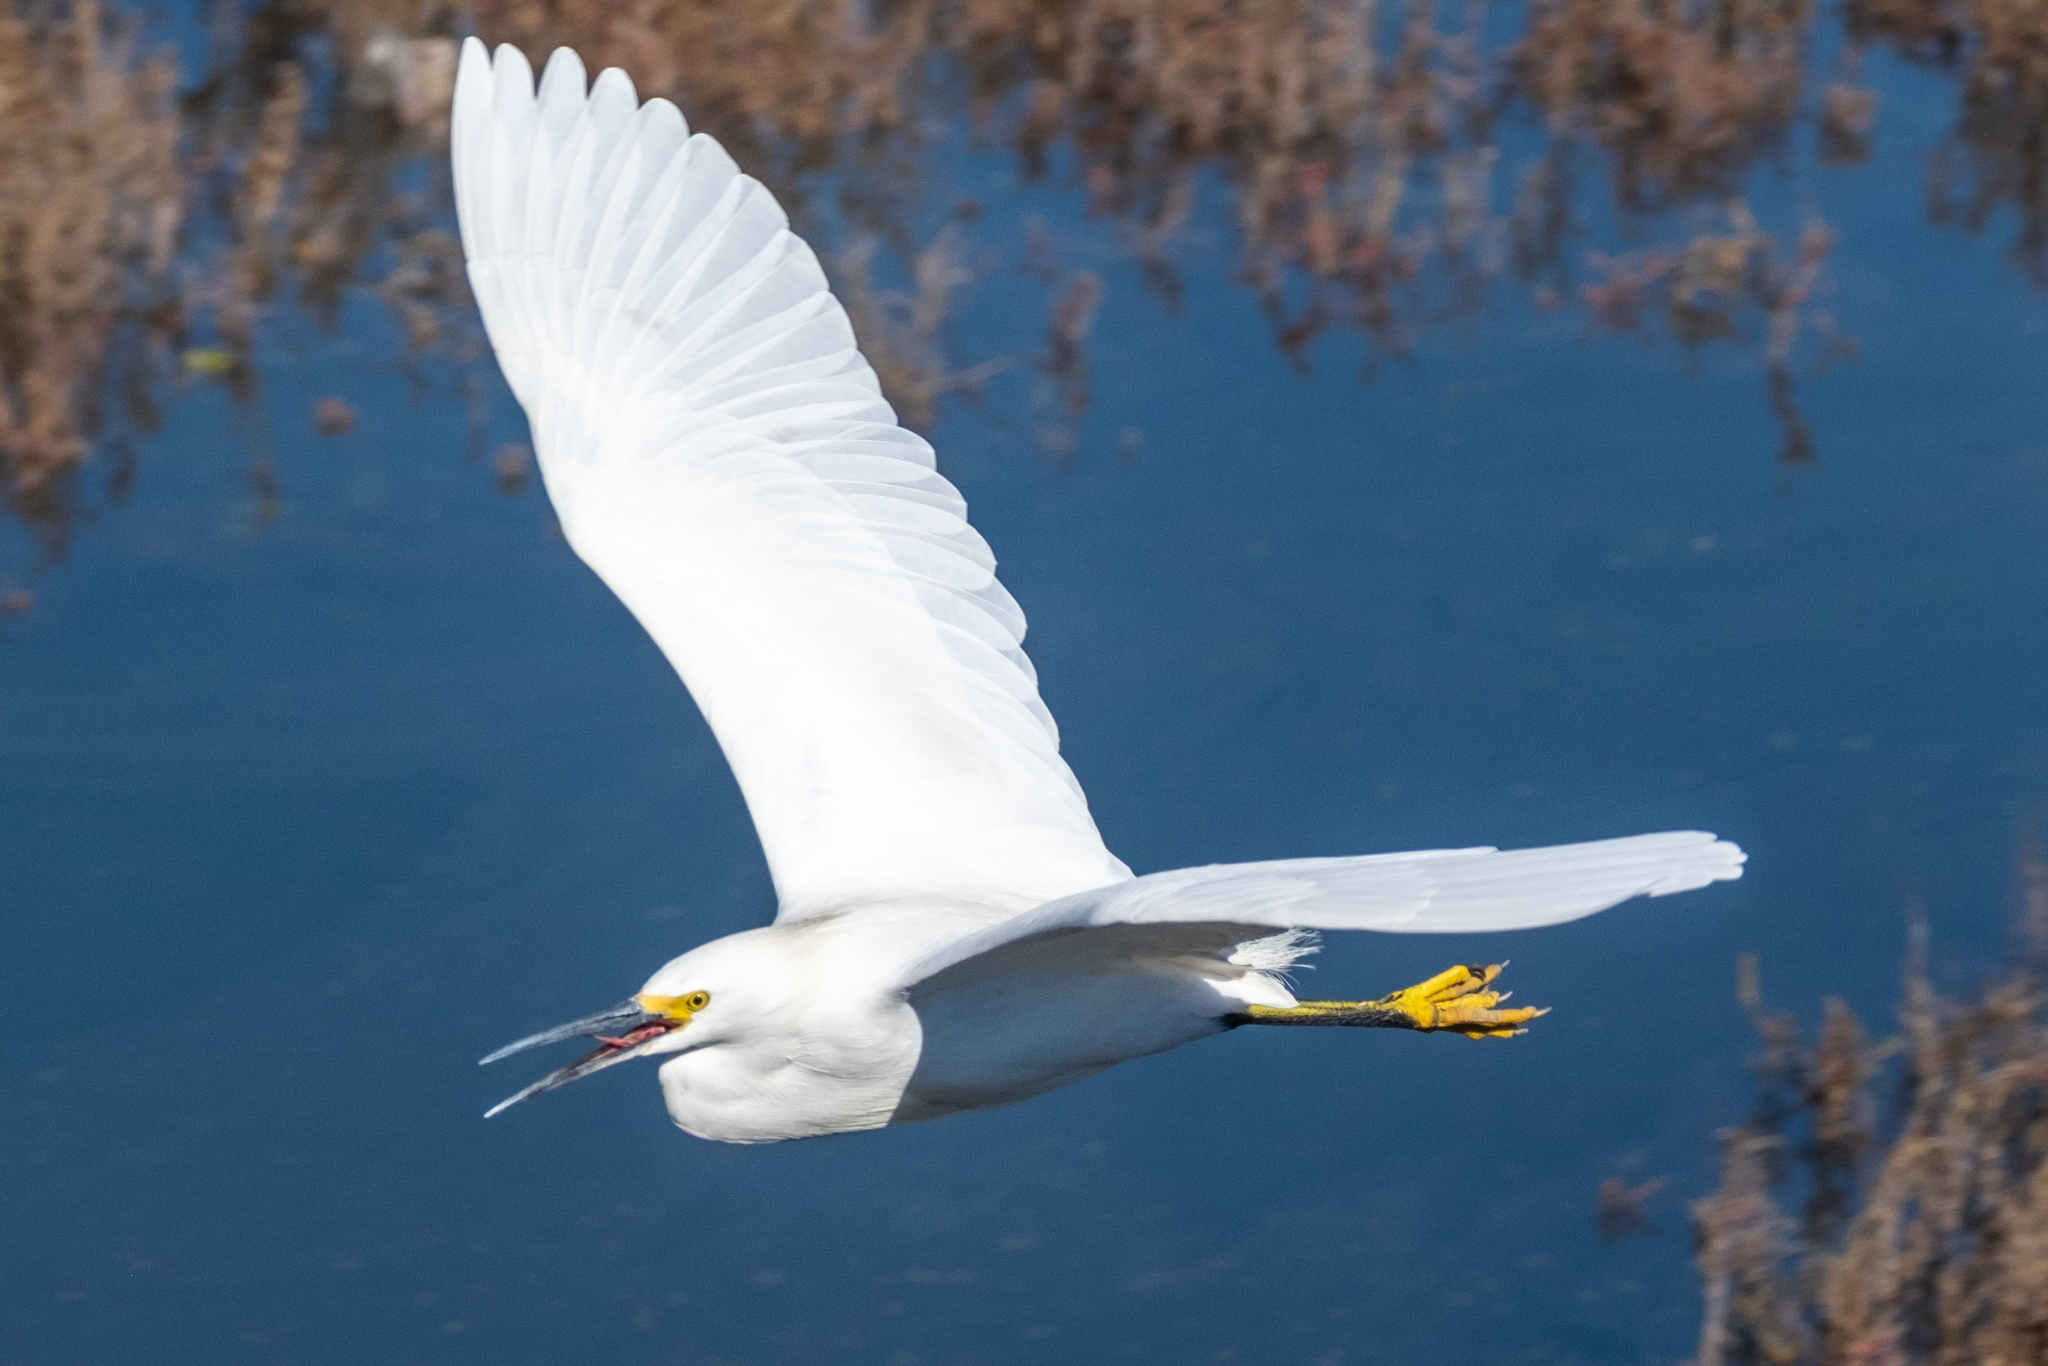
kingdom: Animalia
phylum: Chordata
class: Aves
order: Pelecaniformes
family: Ardeidae
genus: Egretta
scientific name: Egretta thula
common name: Snowy egret
